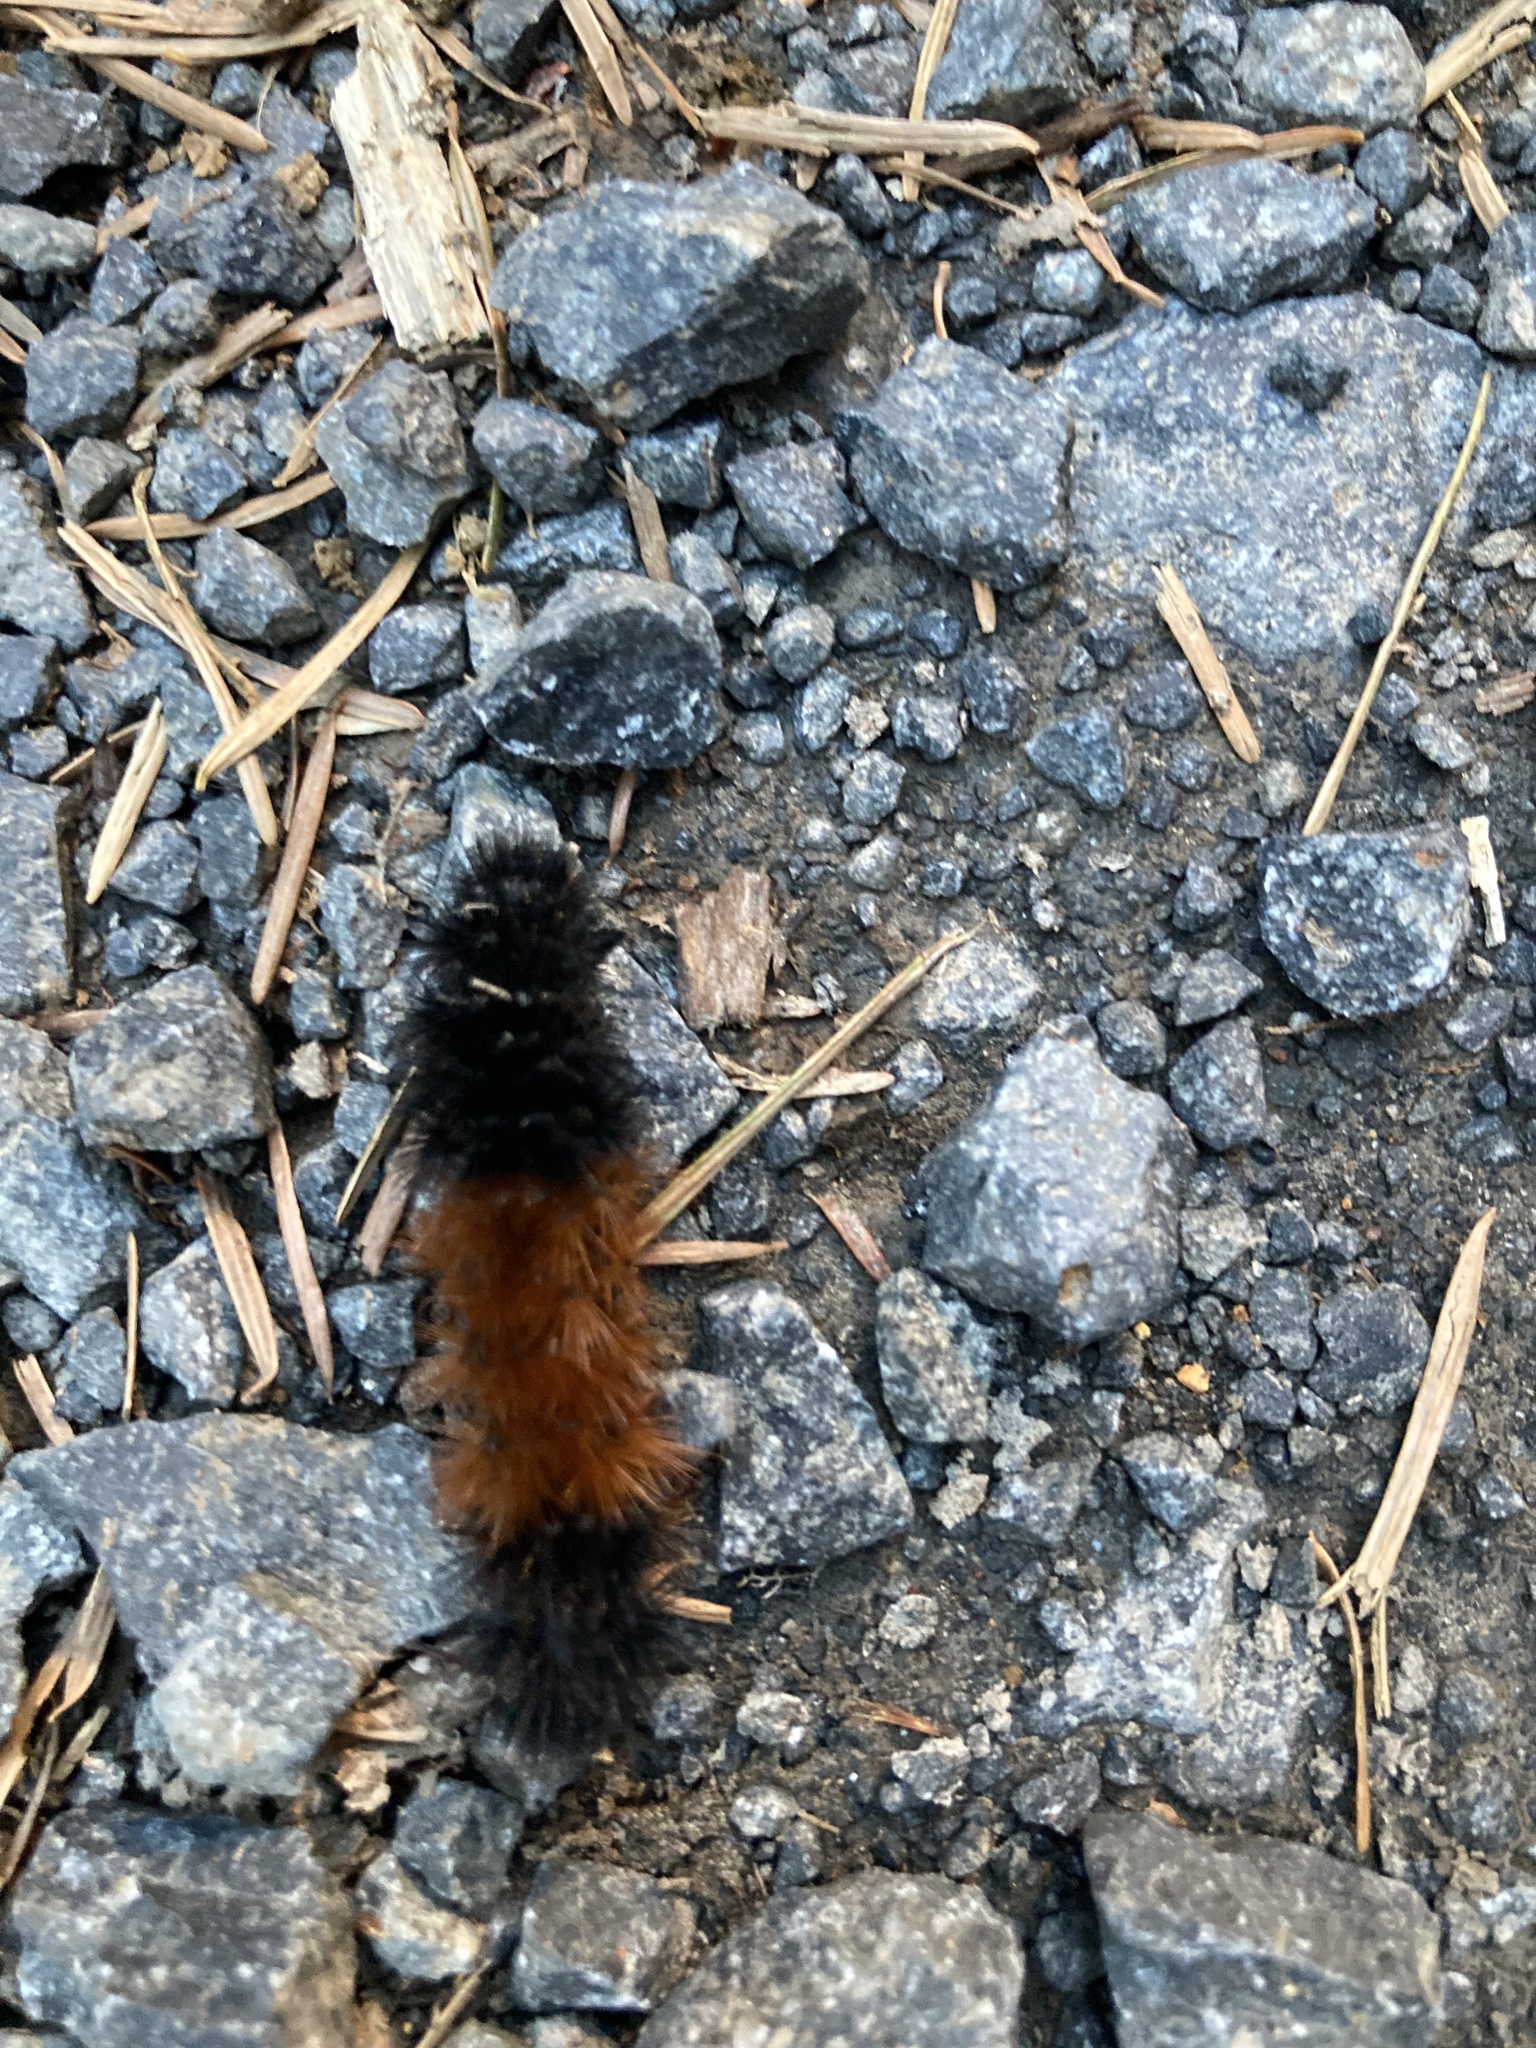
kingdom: Animalia
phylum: Arthropoda
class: Insecta
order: Lepidoptera
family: Erebidae
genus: Pyrrharctia
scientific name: Pyrrharctia isabella
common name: Isabella tiger moth
